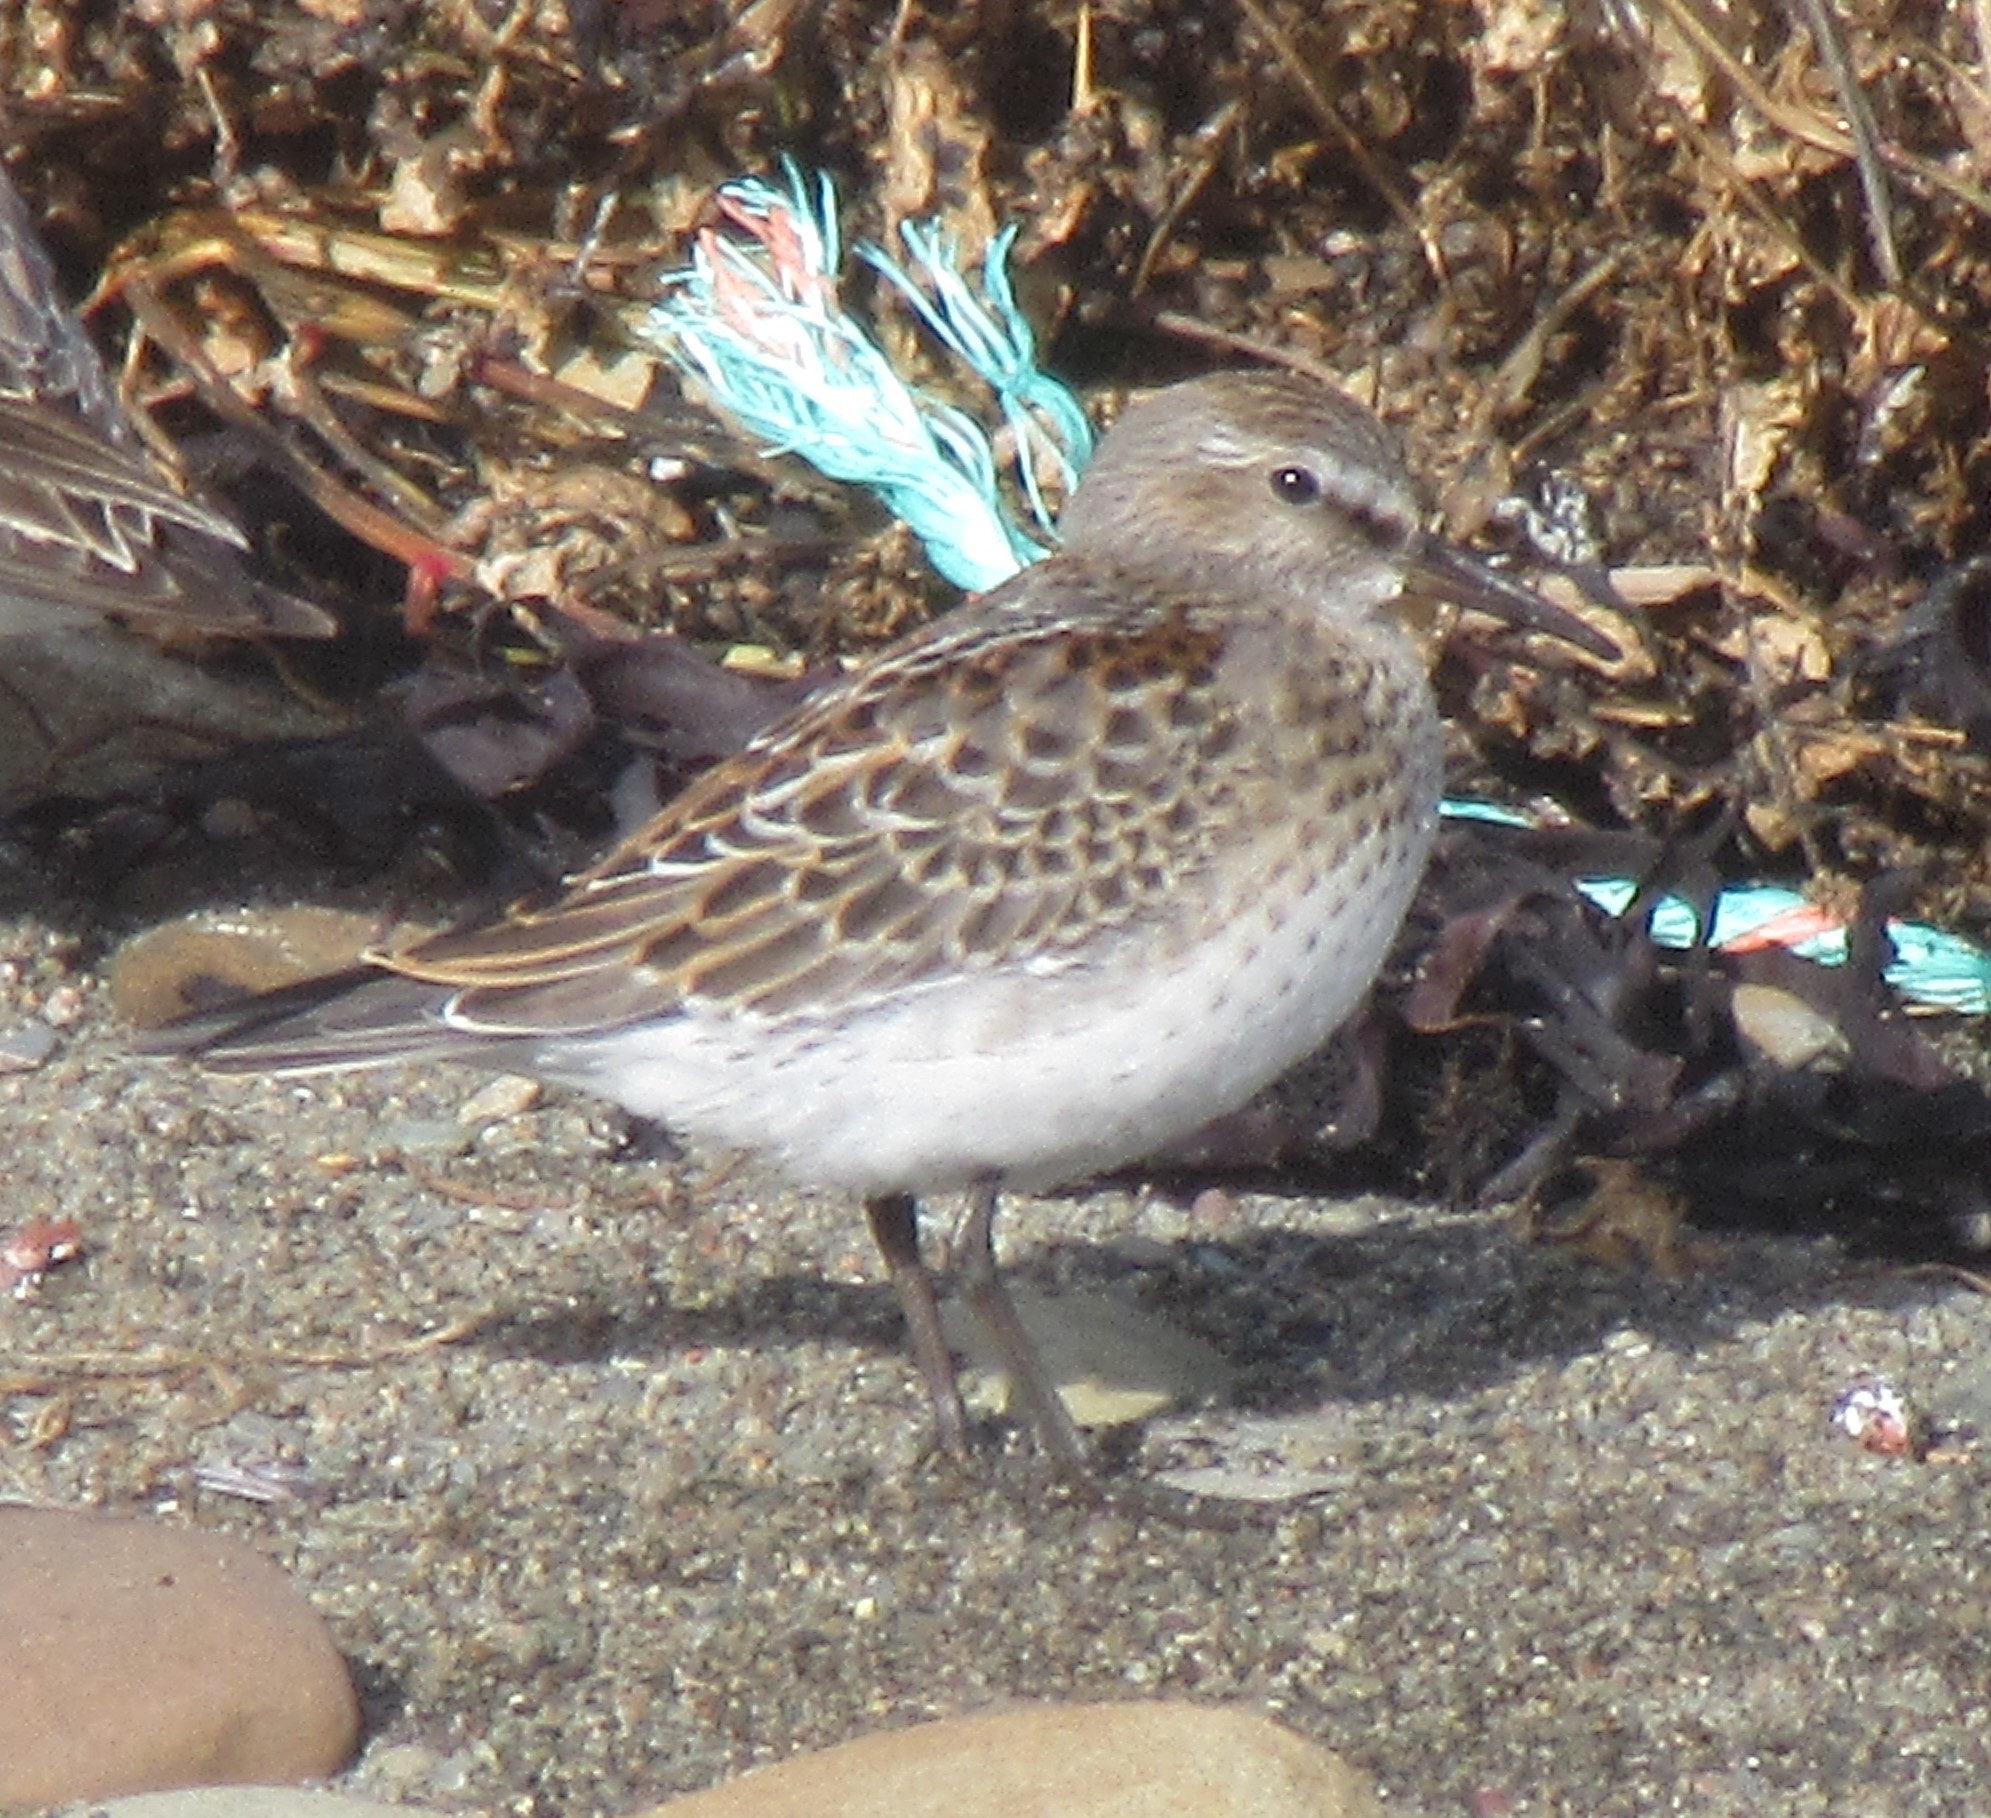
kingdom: Animalia
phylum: Chordata
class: Aves
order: Charadriiformes
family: Scolopacidae
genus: Calidris
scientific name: Calidris fuscicollis
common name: White-rumped sandpiper
